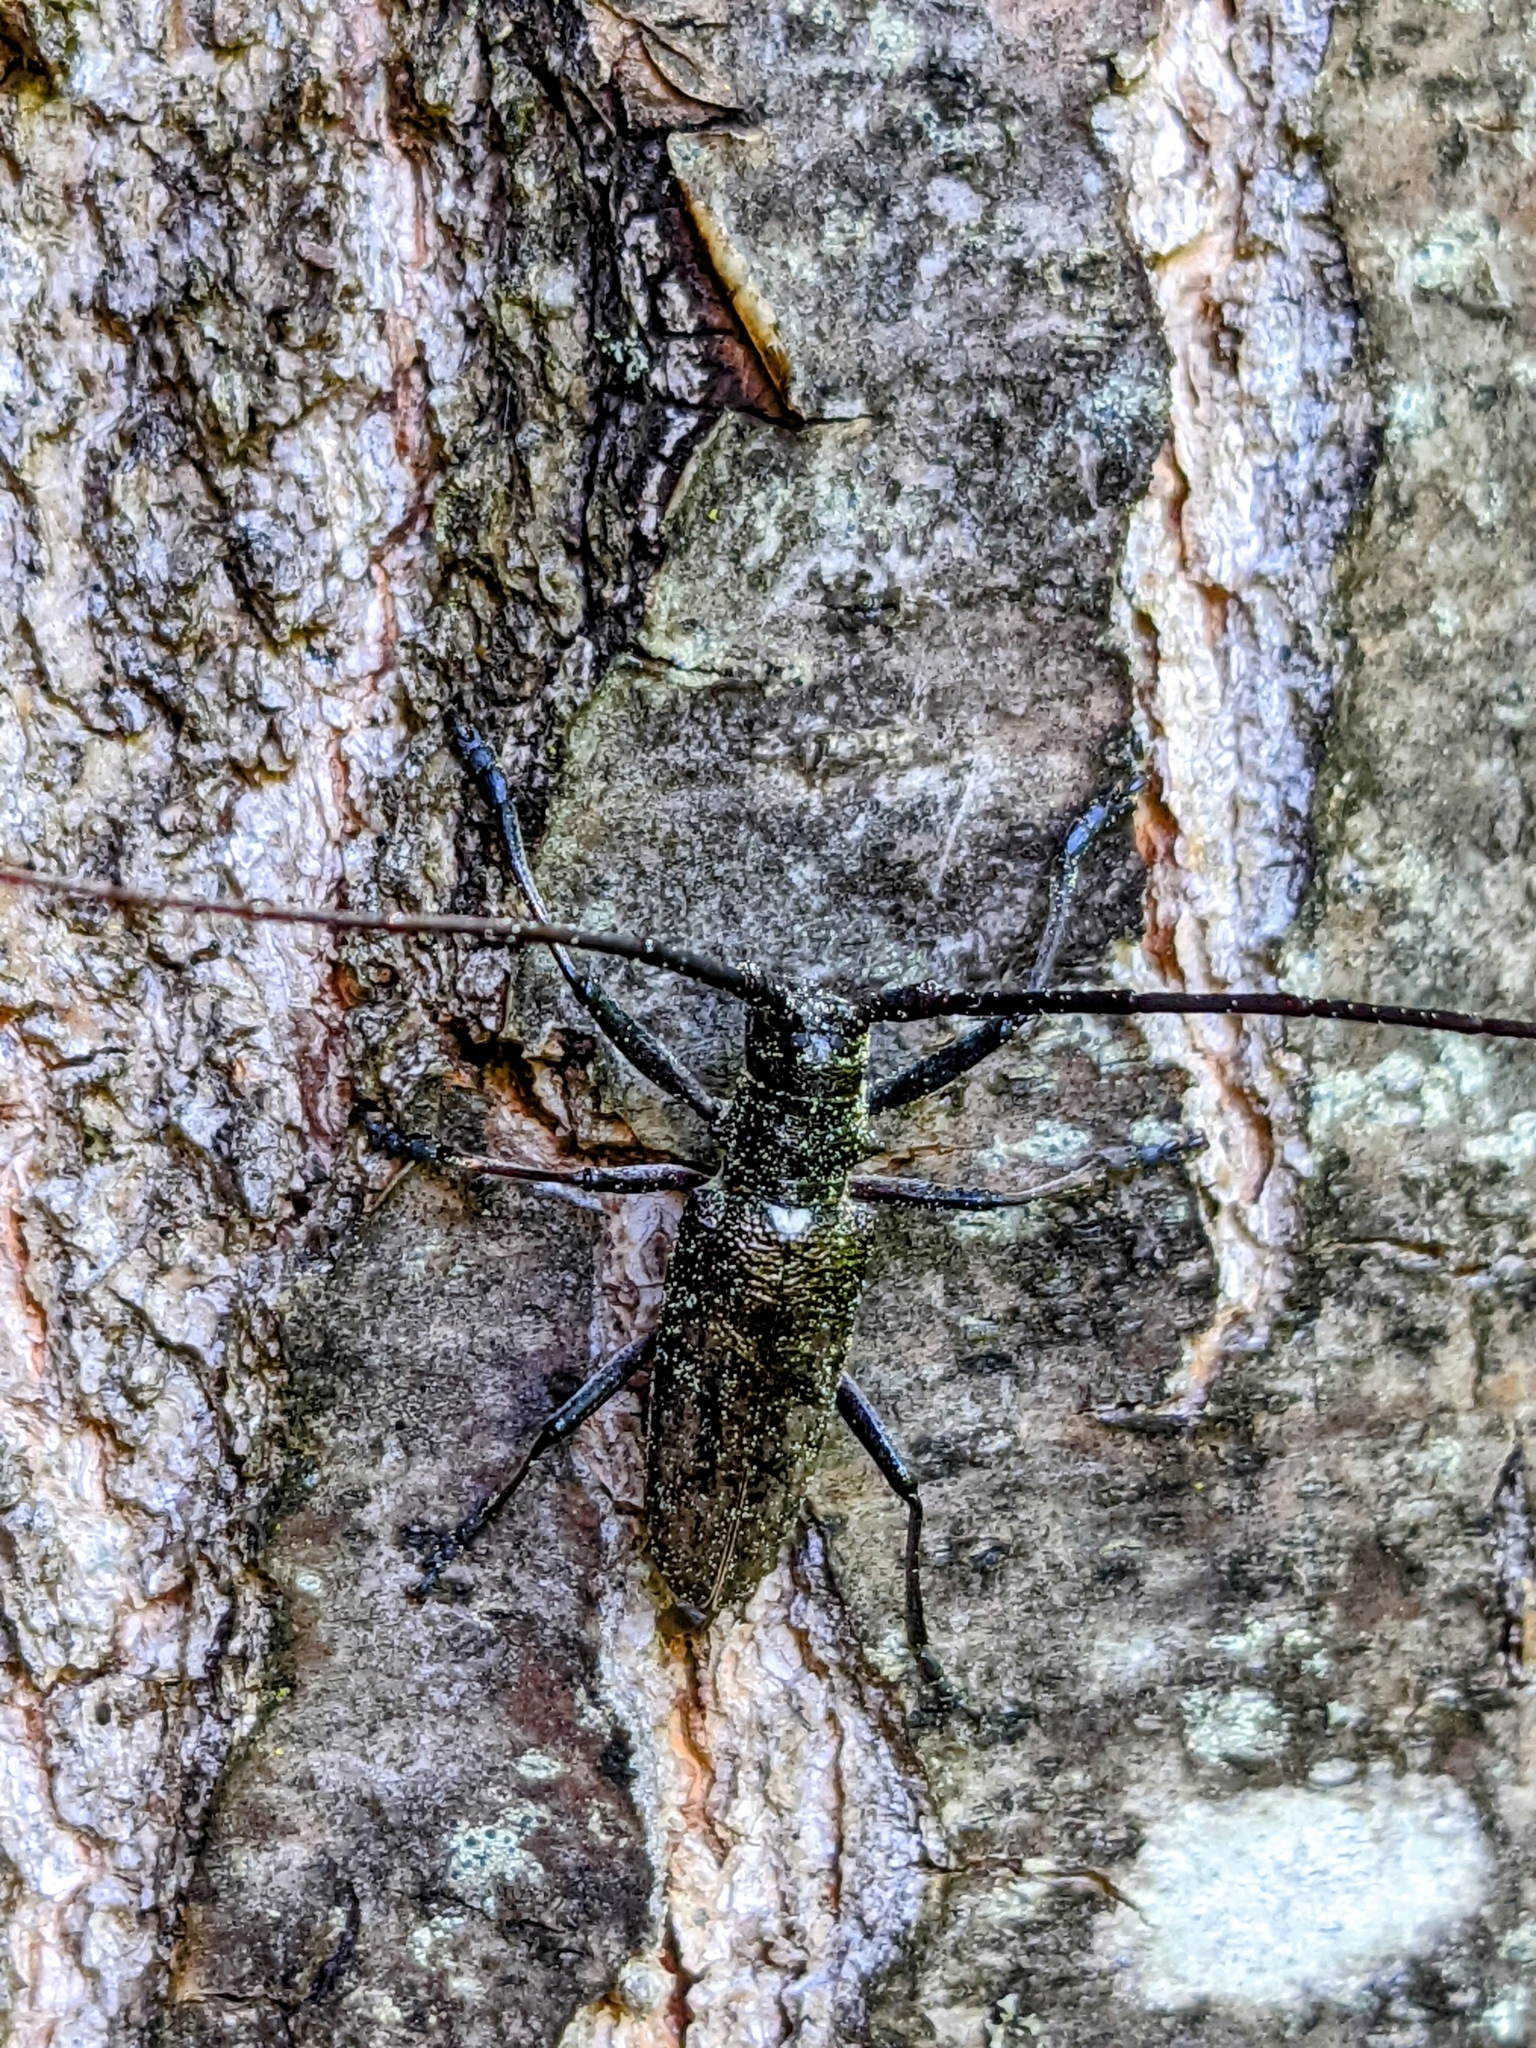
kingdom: Animalia
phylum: Arthropoda
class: Insecta
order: Coleoptera
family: Cerambycidae
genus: Monochamus
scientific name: Monochamus scutellatus
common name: White-spotted sawyer beetle
